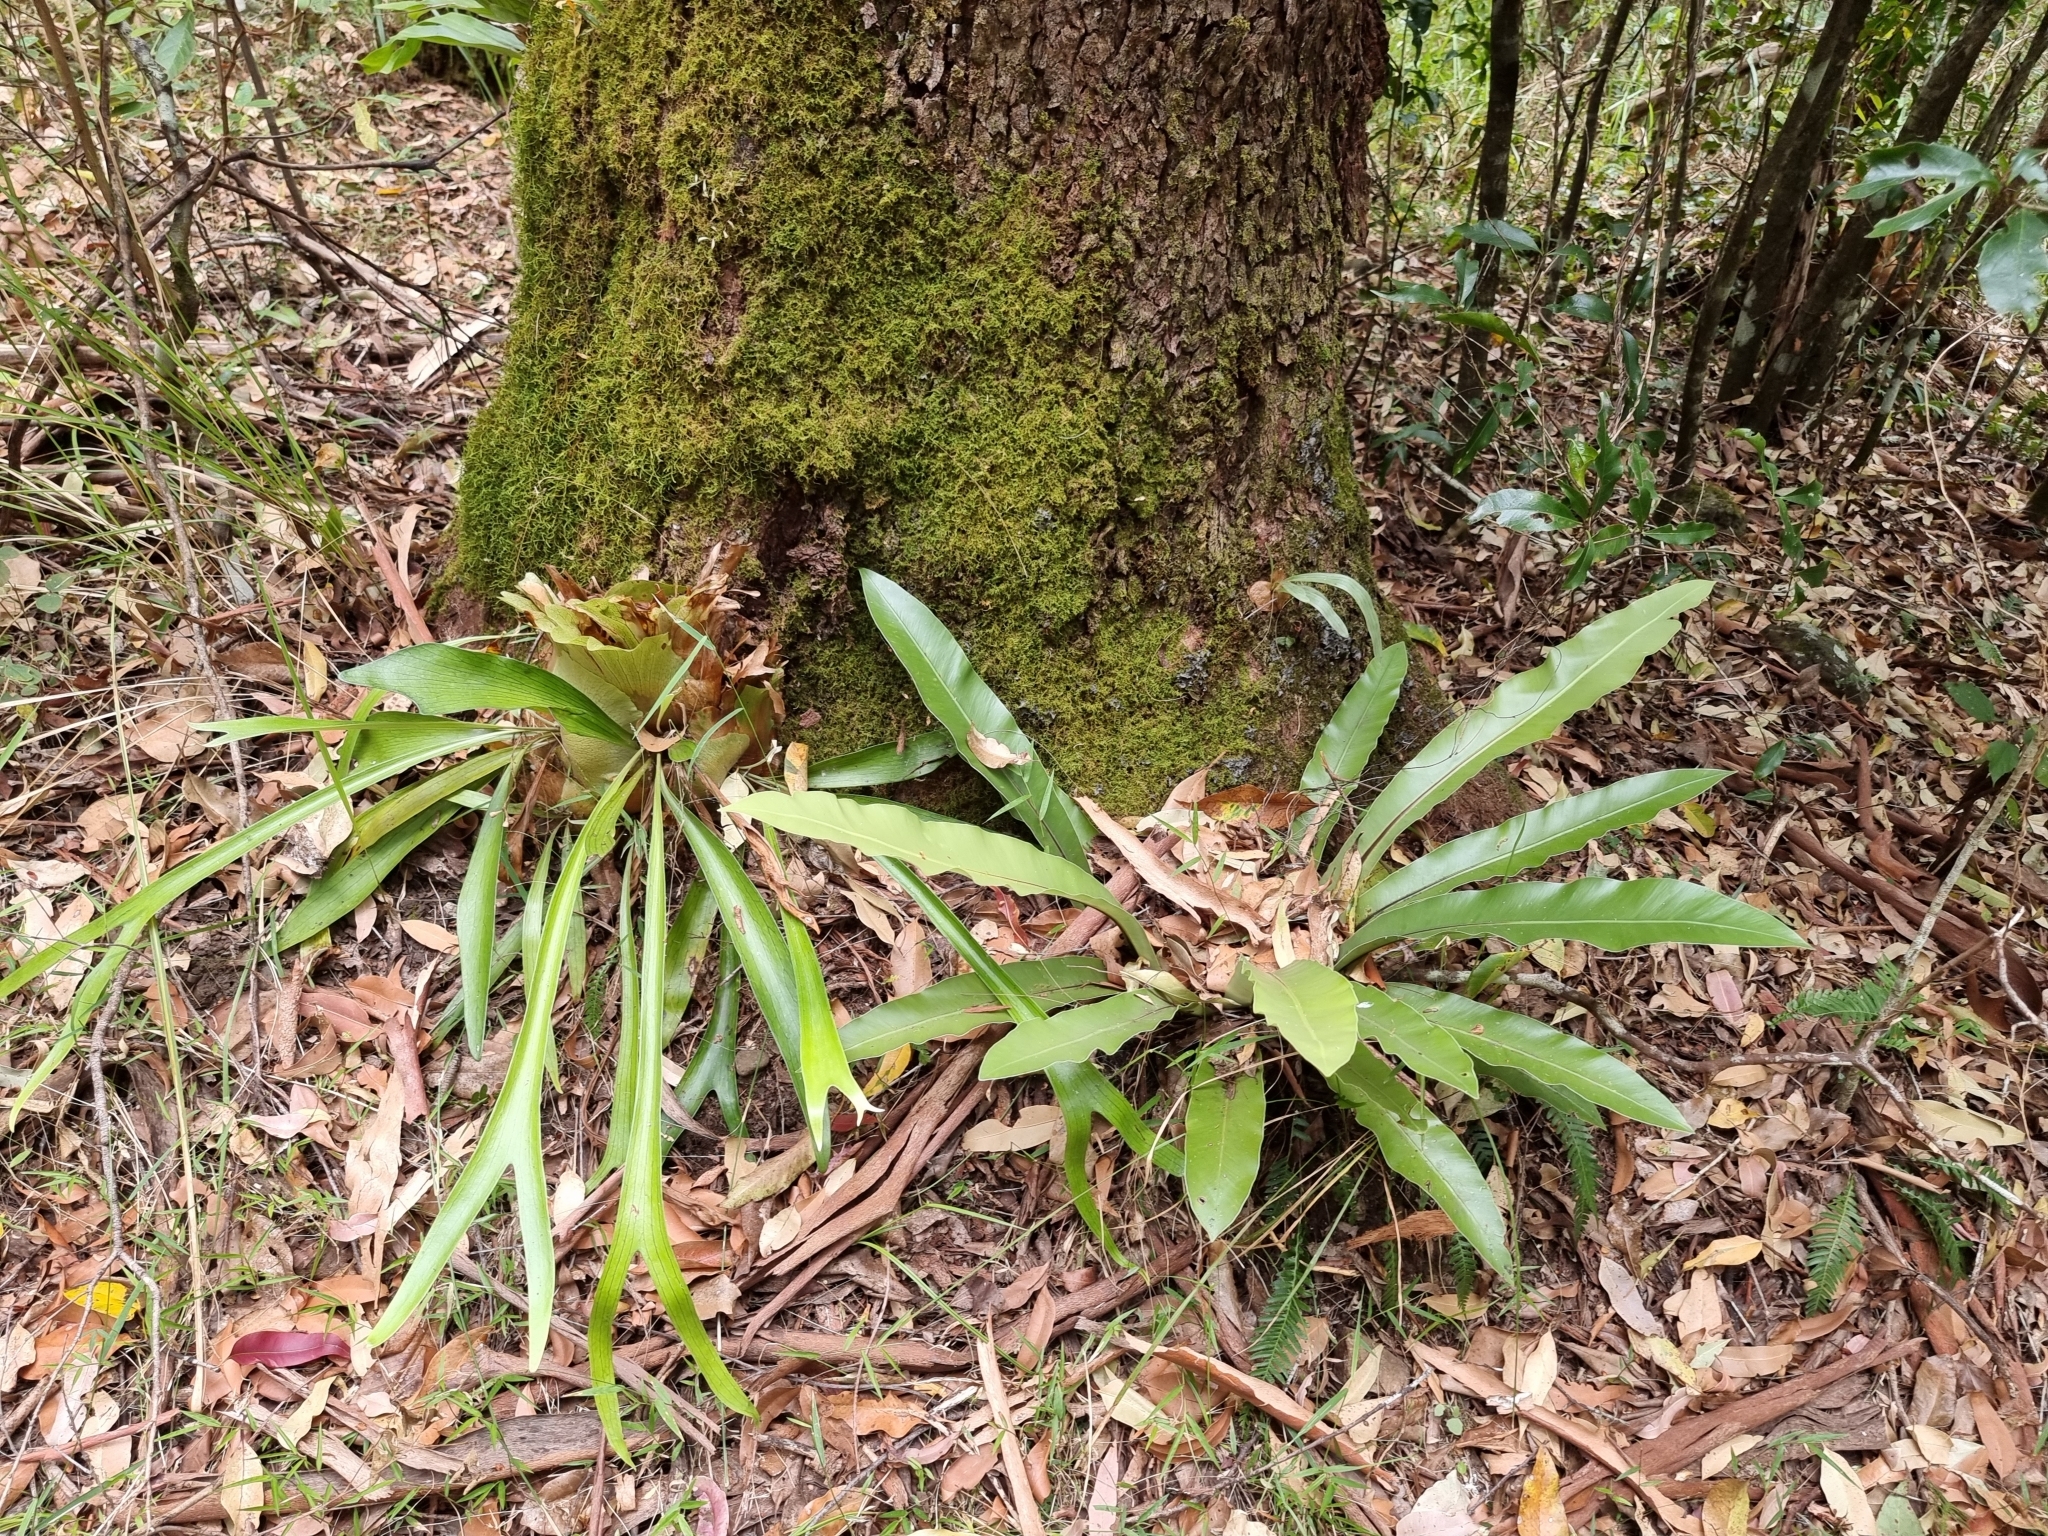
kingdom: Plantae
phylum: Tracheophyta
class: Polypodiopsida
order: Polypodiales
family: Aspleniaceae
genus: Asplenium
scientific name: Asplenium australasicum
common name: Bird's-nest fern
